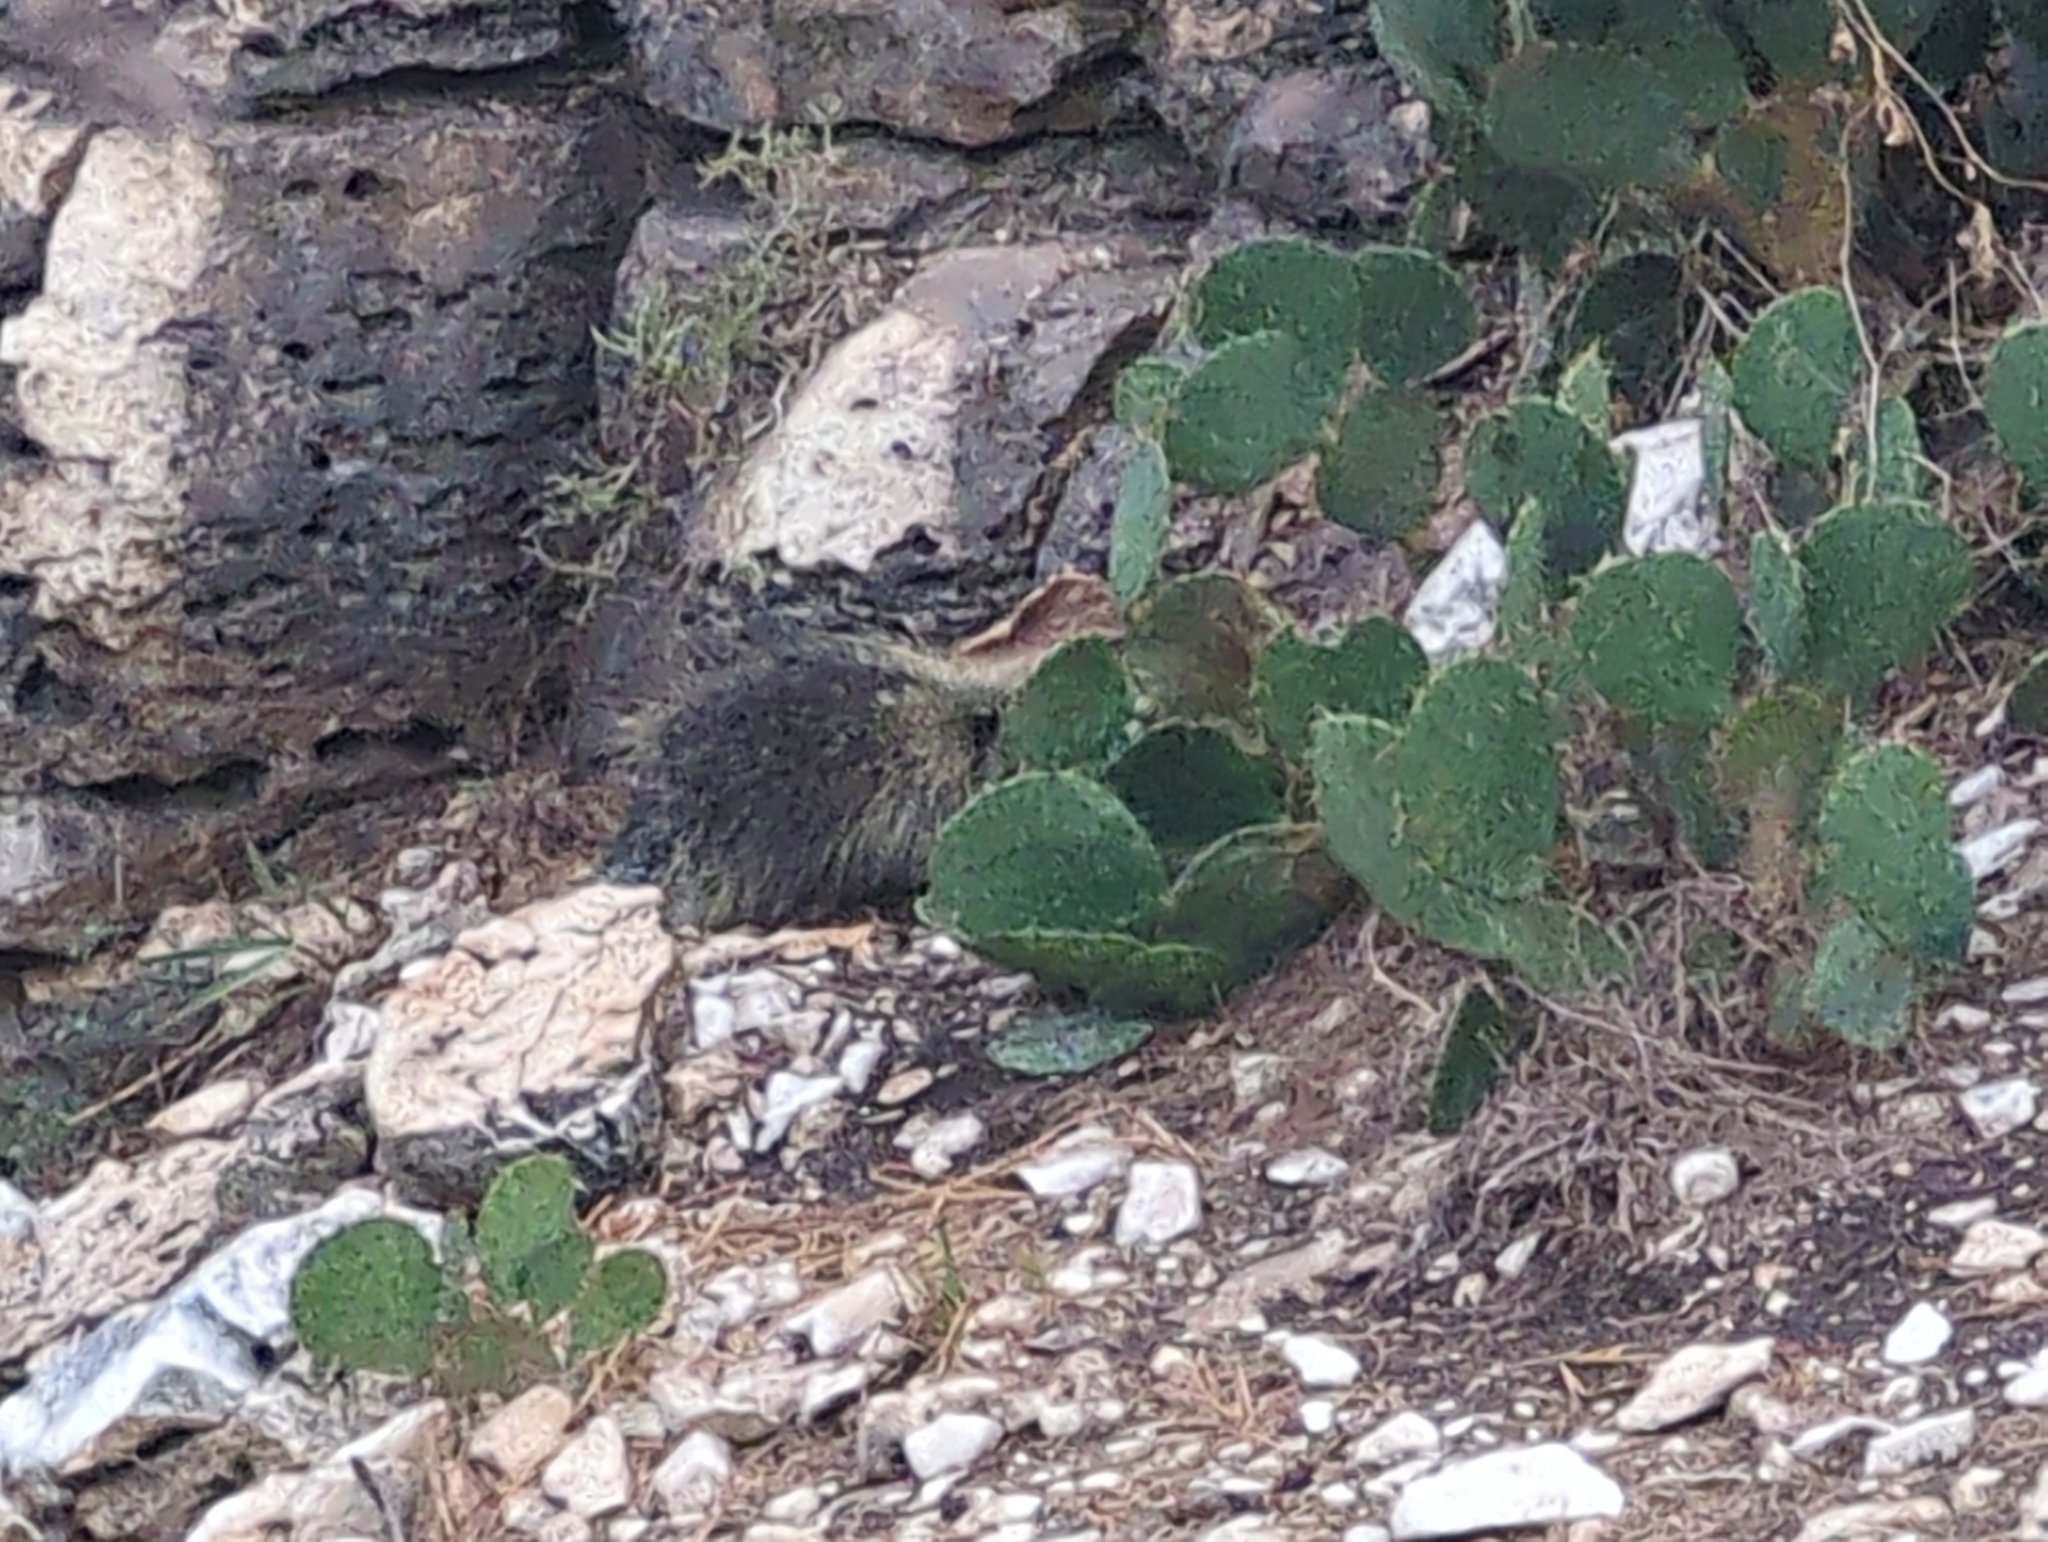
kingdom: Animalia
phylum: Chordata
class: Mammalia
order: Rodentia
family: Erethizontidae
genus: Erethizon
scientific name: Erethizon dorsatus
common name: North american porcupine
